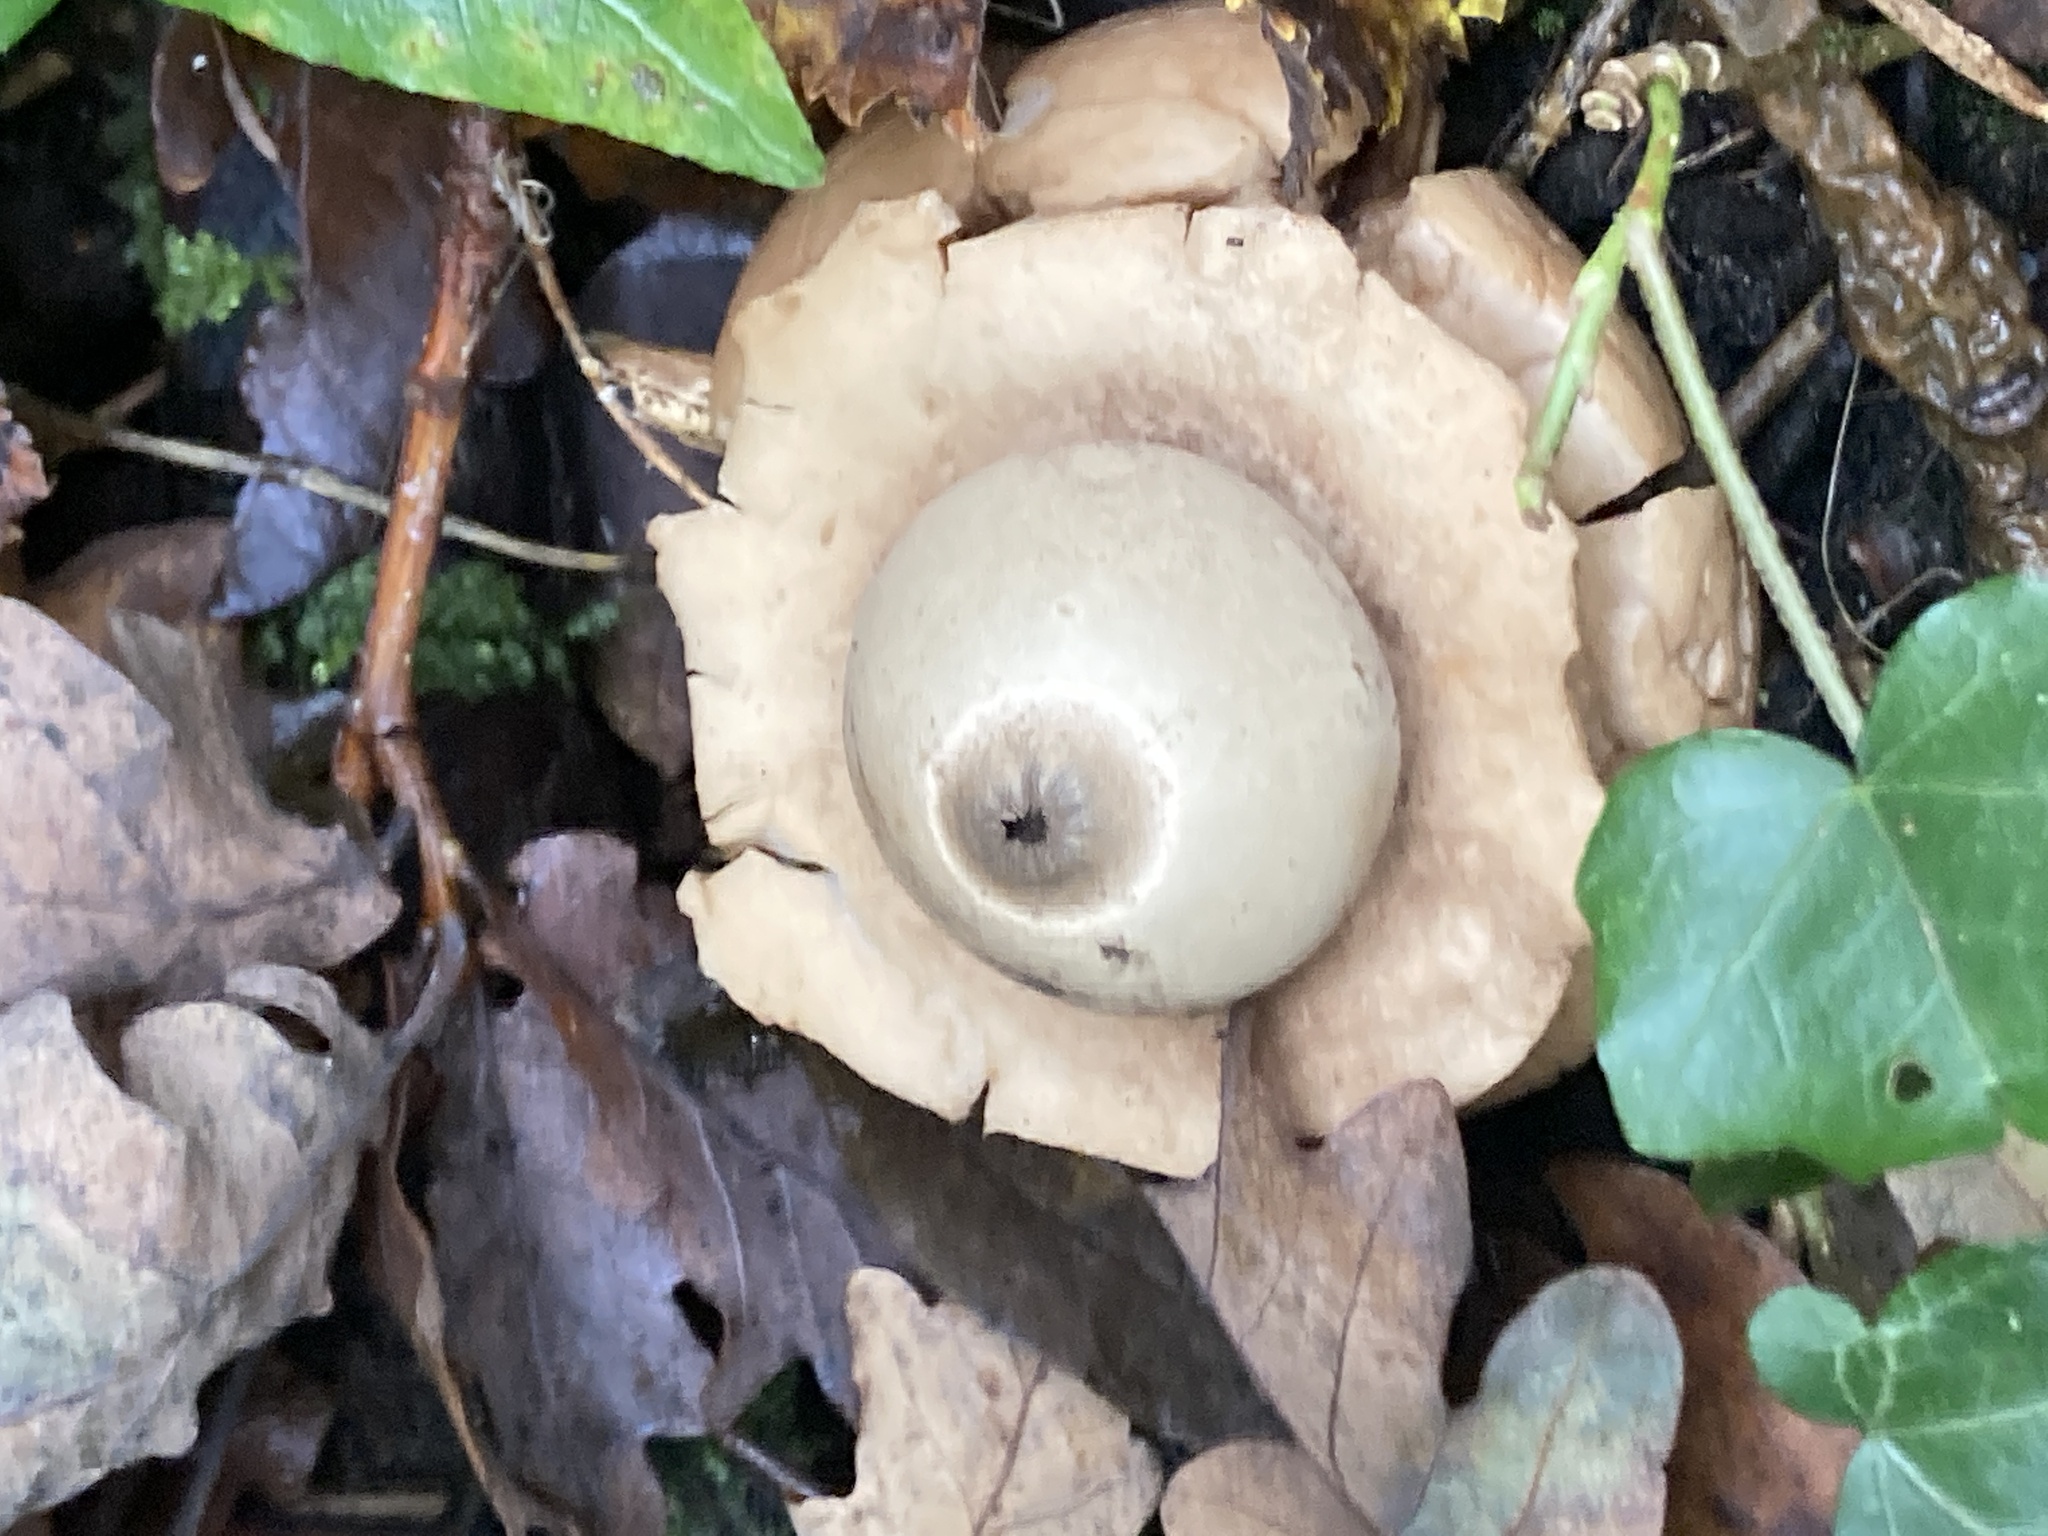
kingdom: Fungi
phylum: Basidiomycota
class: Agaricomycetes
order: Geastrales
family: Geastraceae
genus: Geastrum
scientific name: Geastrum triplex
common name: Collared earthstar
